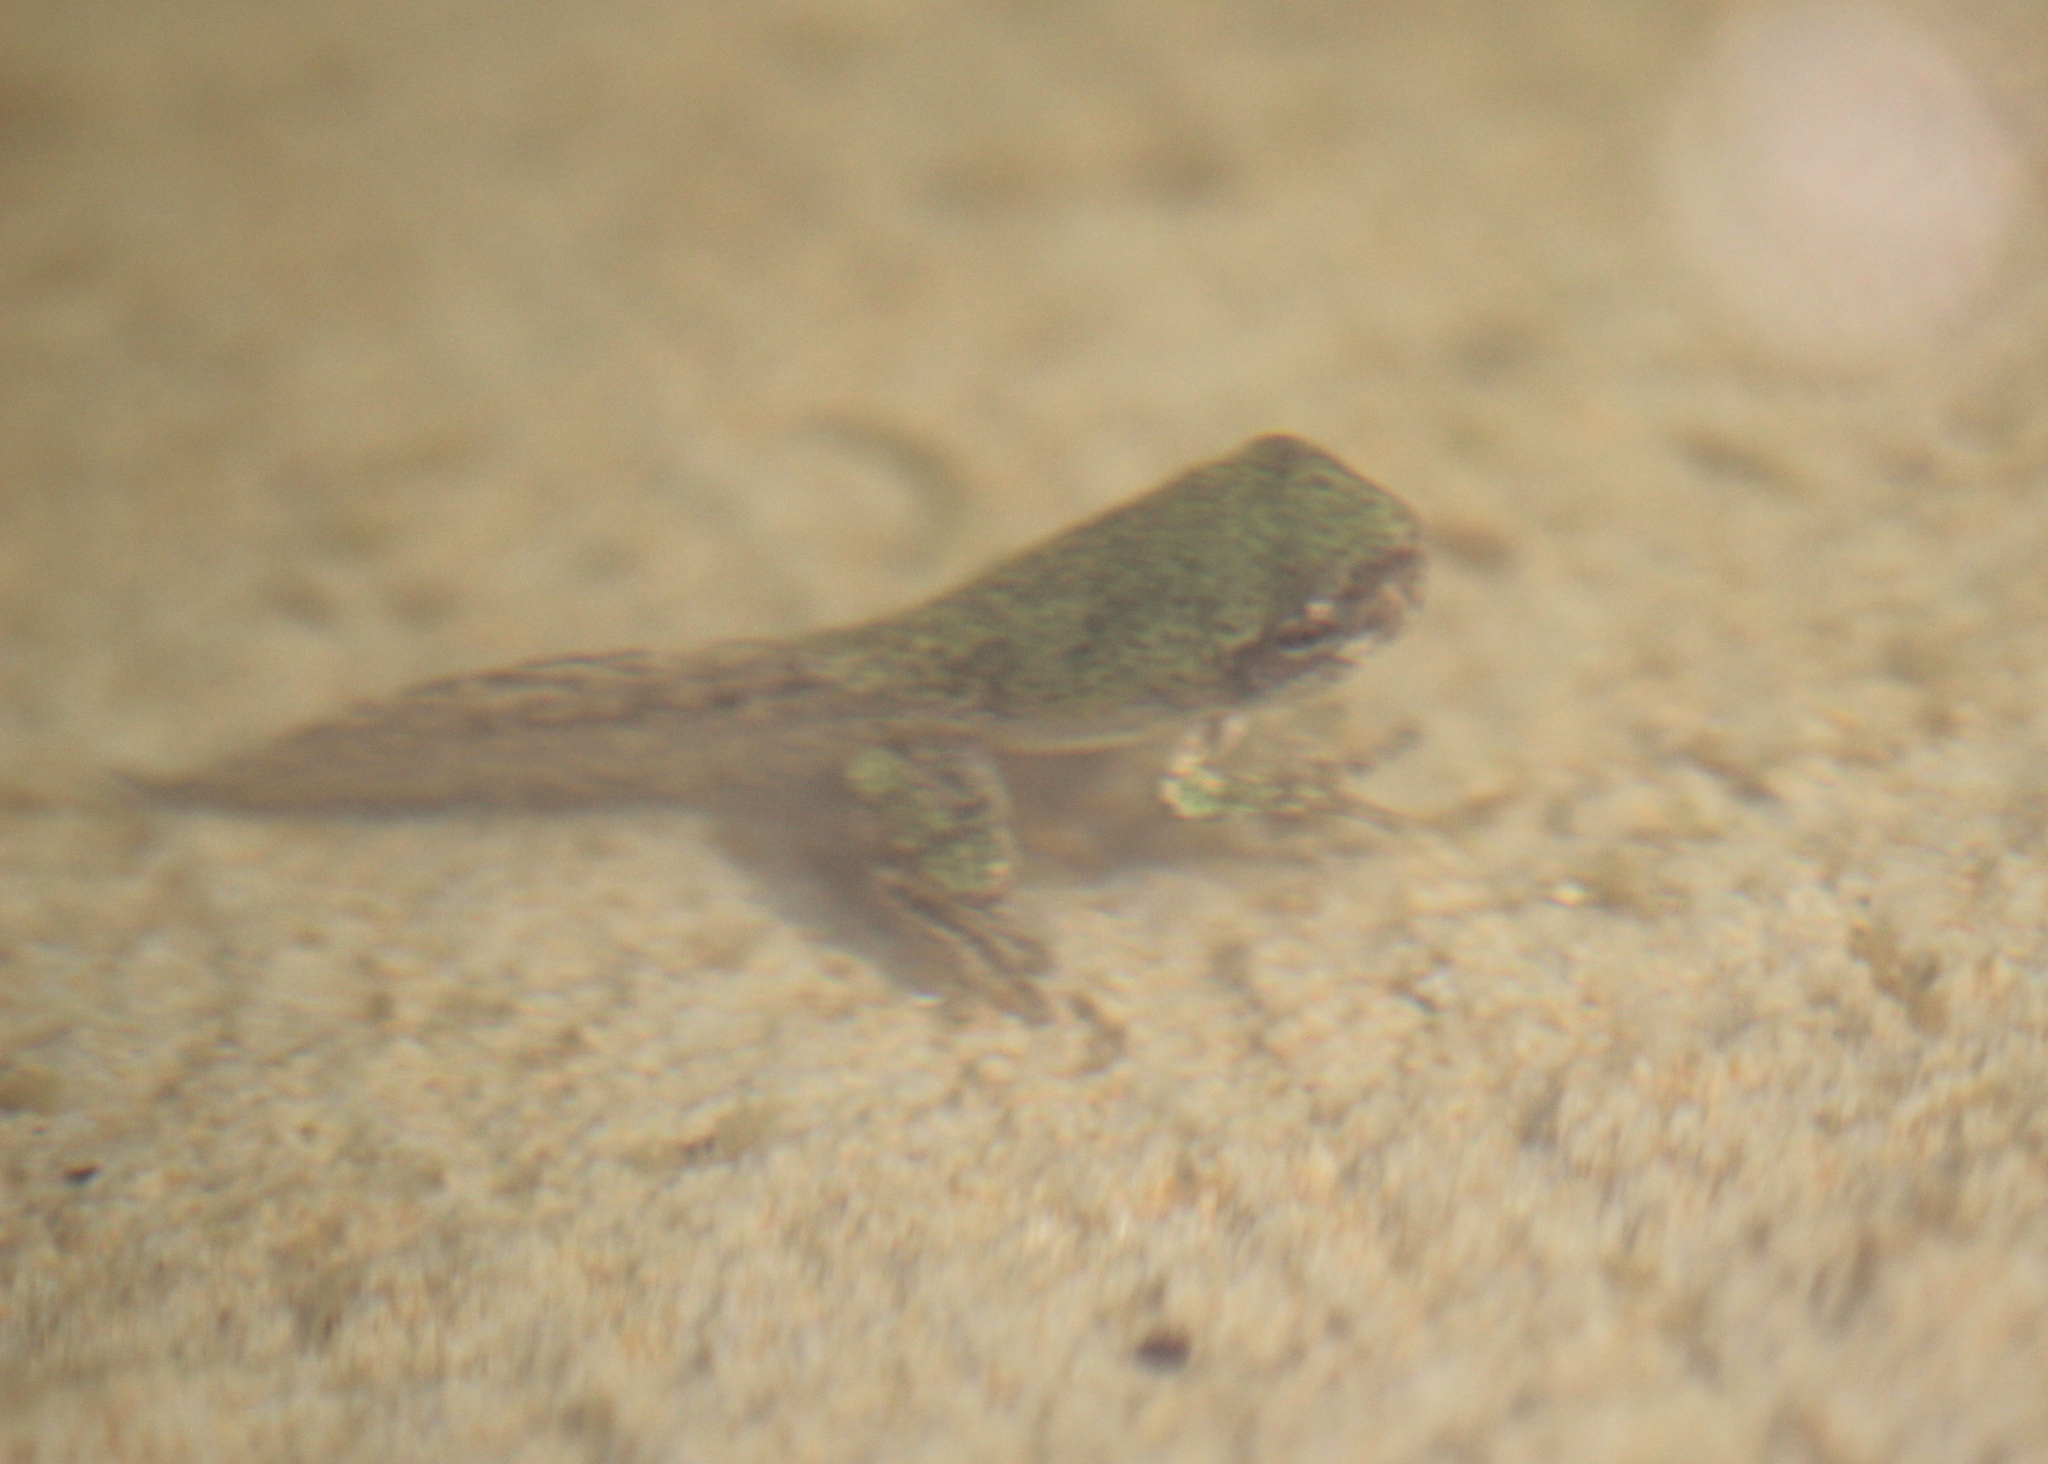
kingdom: Animalia
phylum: Chordata
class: Amphibia
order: Anura
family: Hylidae
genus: Dryophytes
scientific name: Dryophytes versicolor
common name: Gray treefrog
